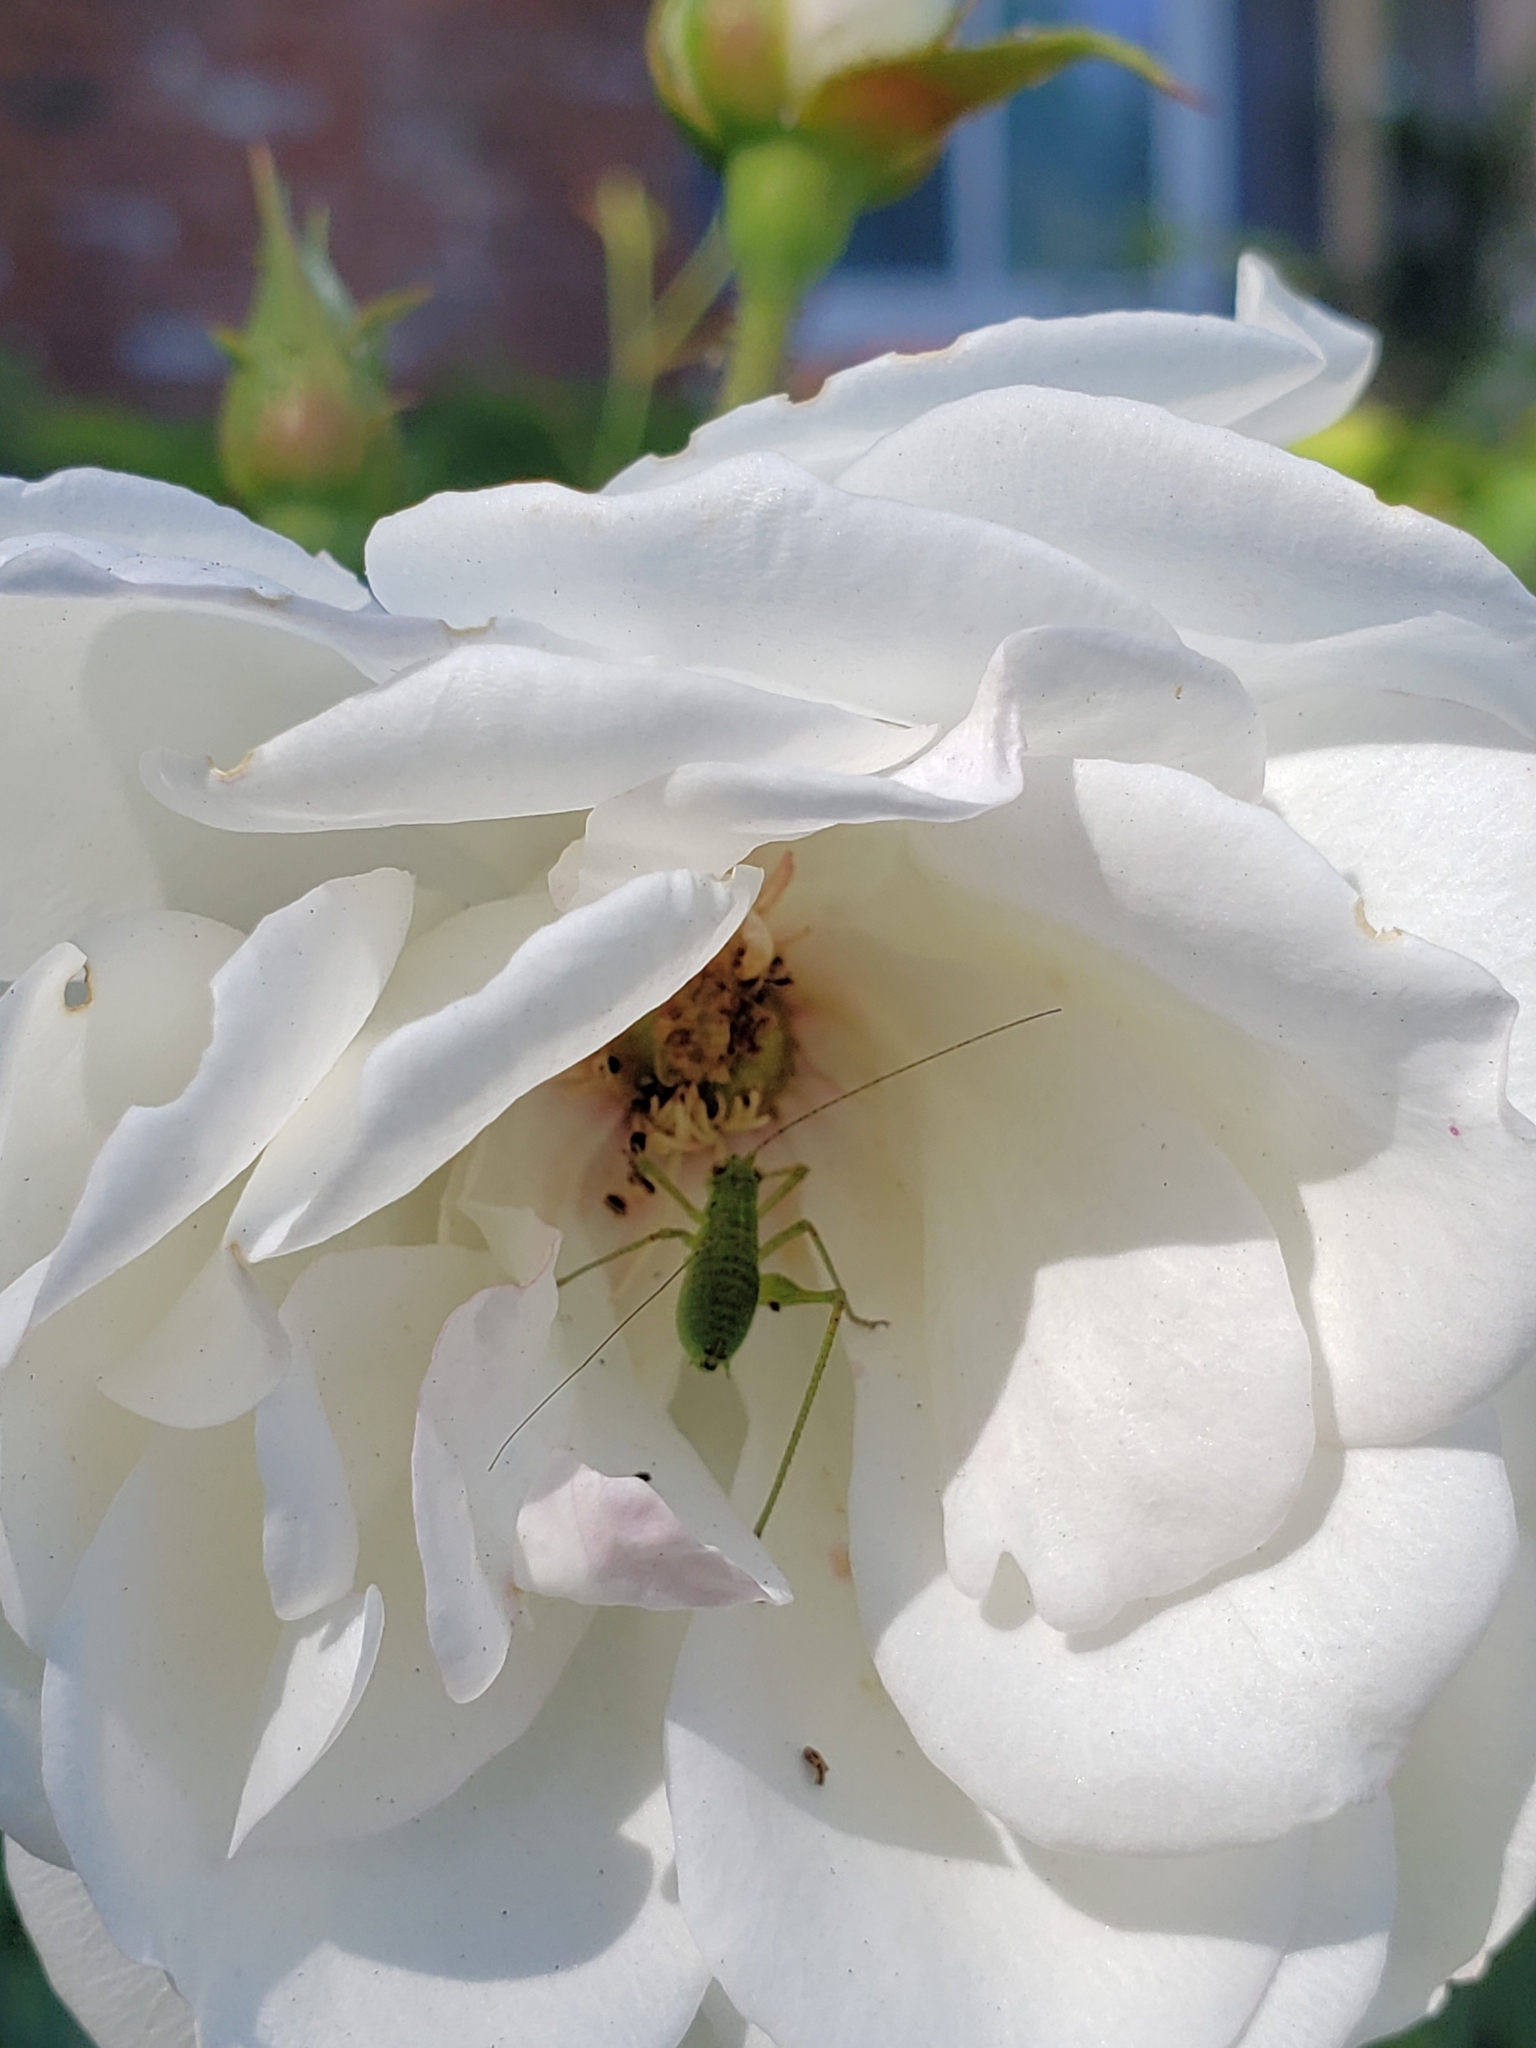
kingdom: Animalia
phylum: Arthropoda
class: Insecta
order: Orthoptera
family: Tettigoniidae
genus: Phaneroptera
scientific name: Phaneroptera nana
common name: Southern sickle bush-cricket
